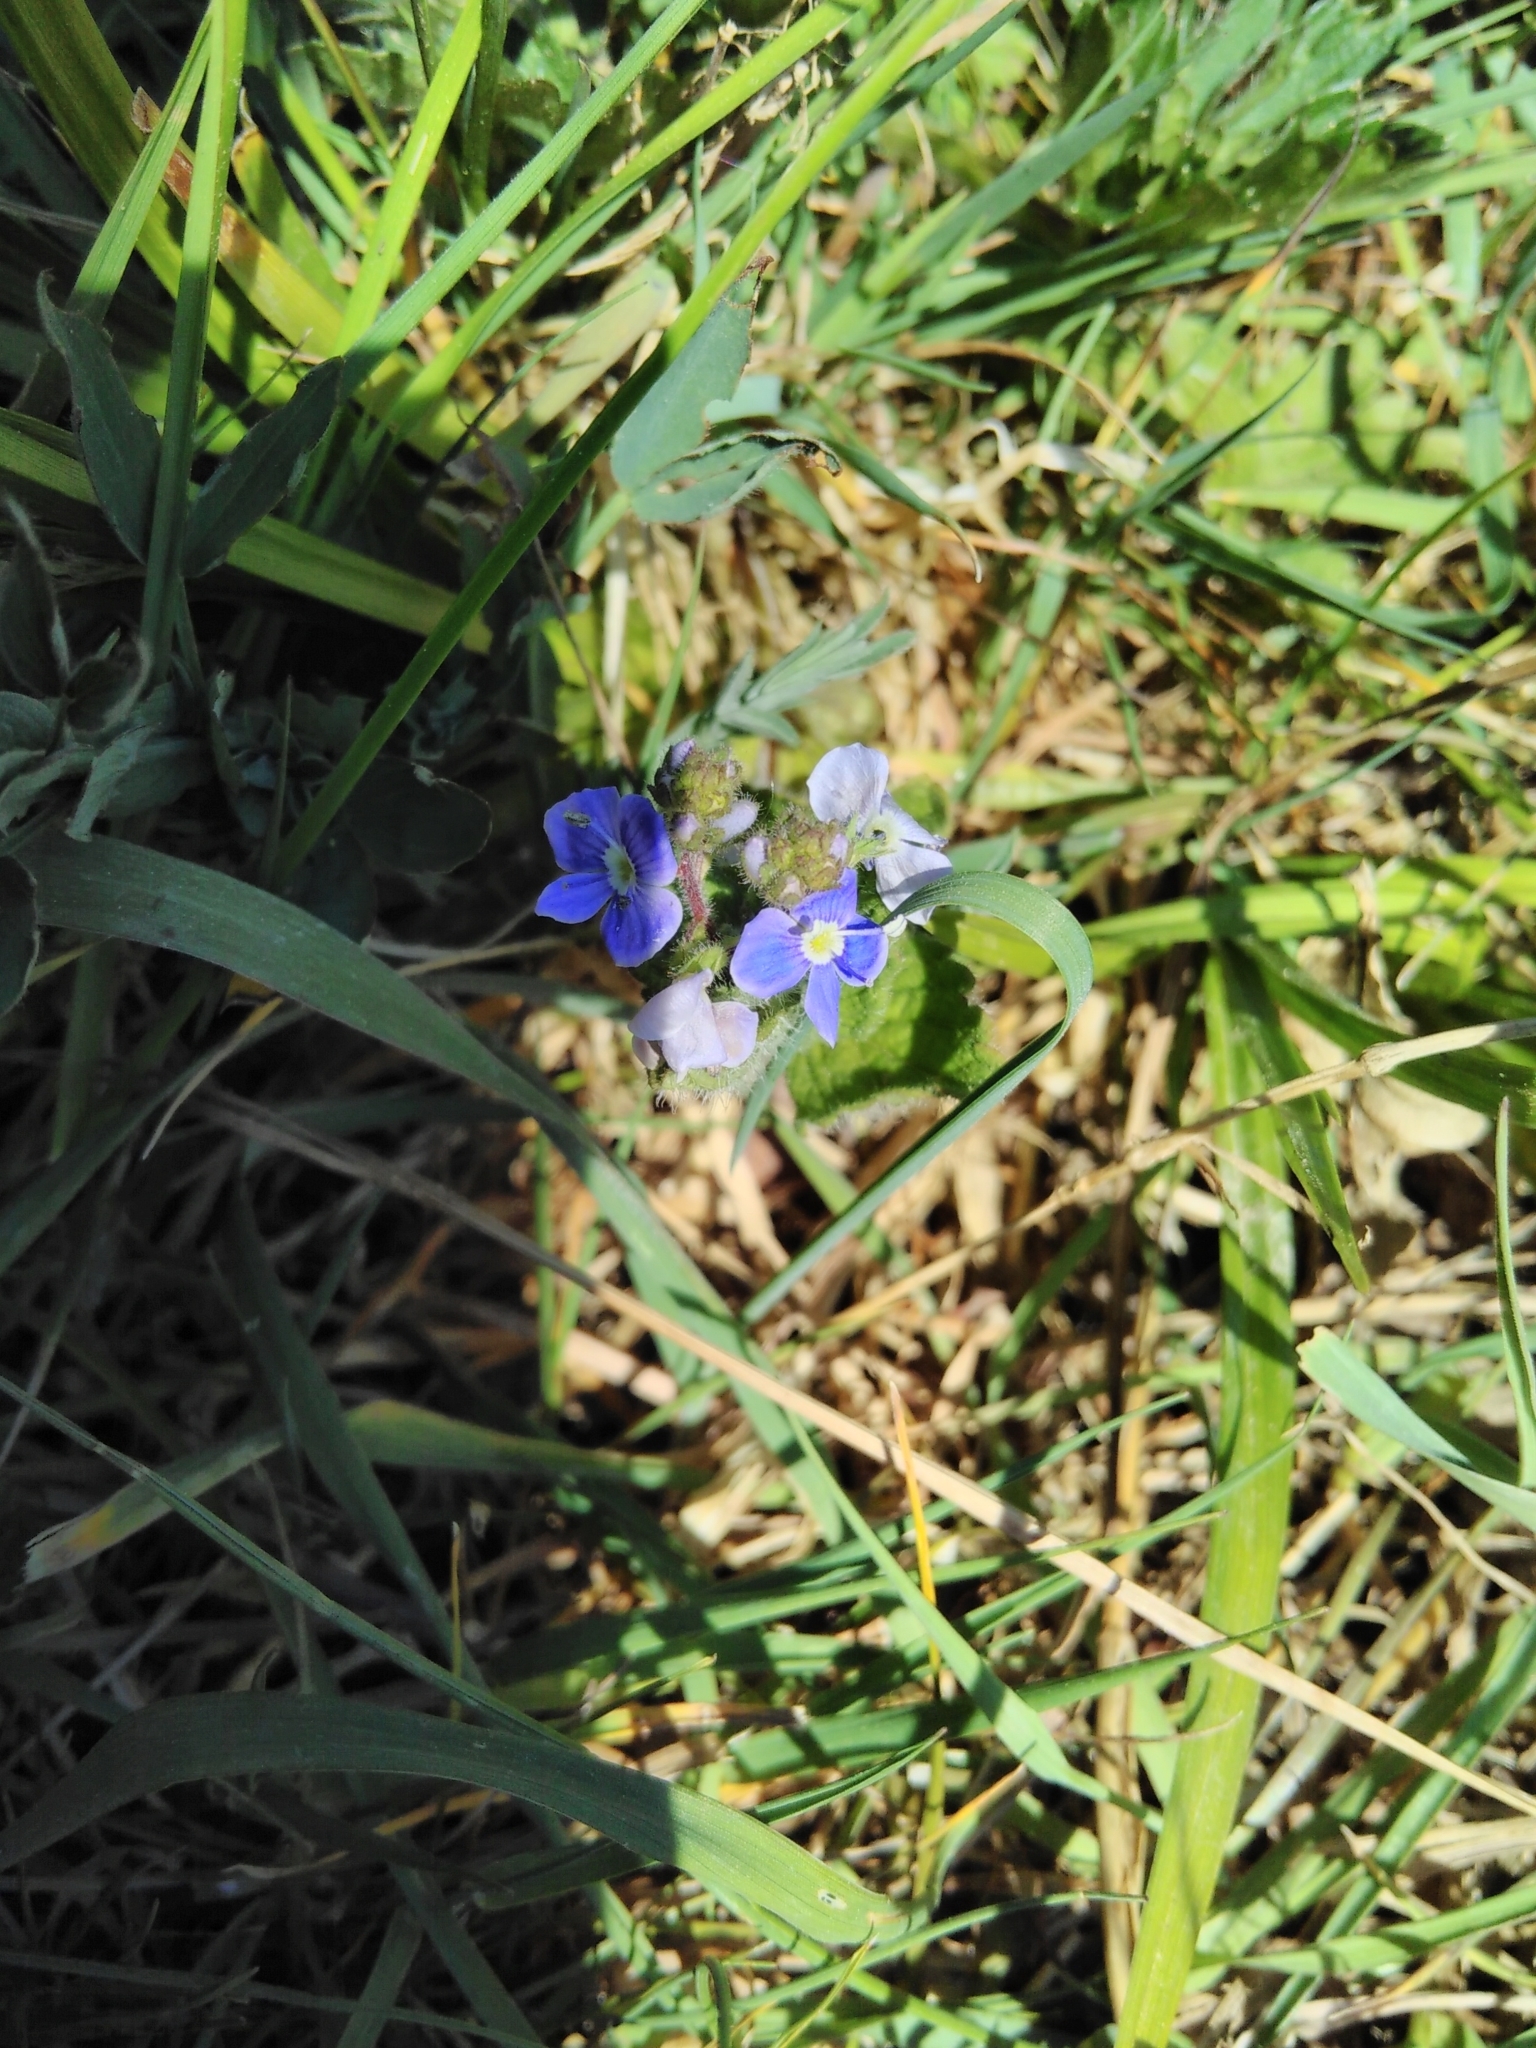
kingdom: Plantae
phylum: Tracheophyta
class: Magnoliopsida
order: Lamiales
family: Plantaginaceae
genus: Veronica
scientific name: Veronica chamaedrys
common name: Germander speedwell
